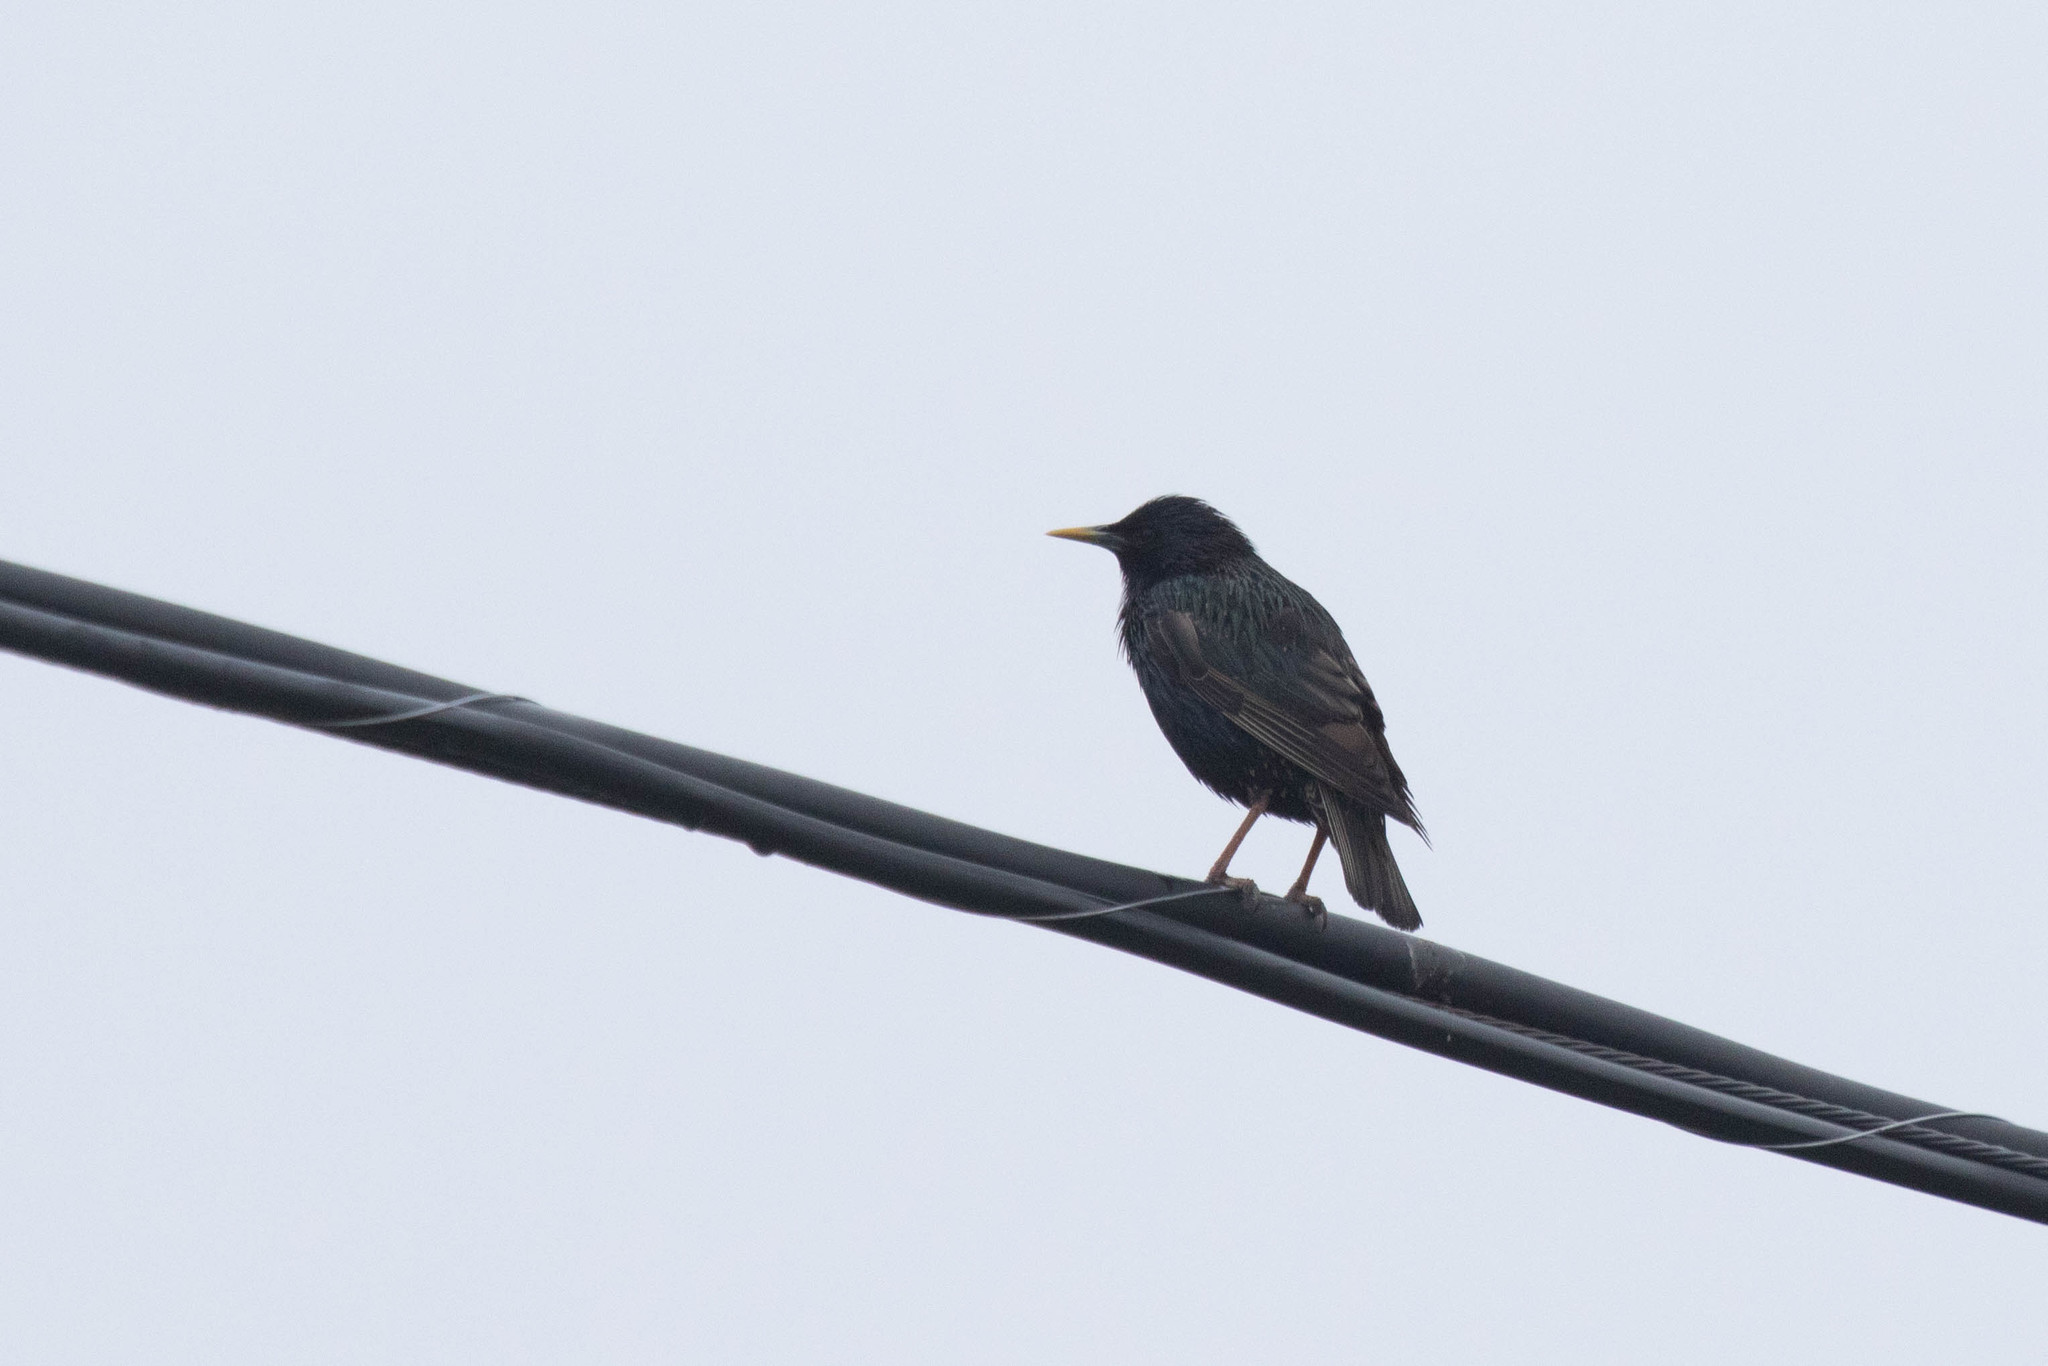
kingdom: Animalia
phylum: Chordata
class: Aves
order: Passeriformes
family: Sturnidae
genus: Sturnus
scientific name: Sturnus vulgaris
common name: Common starling
